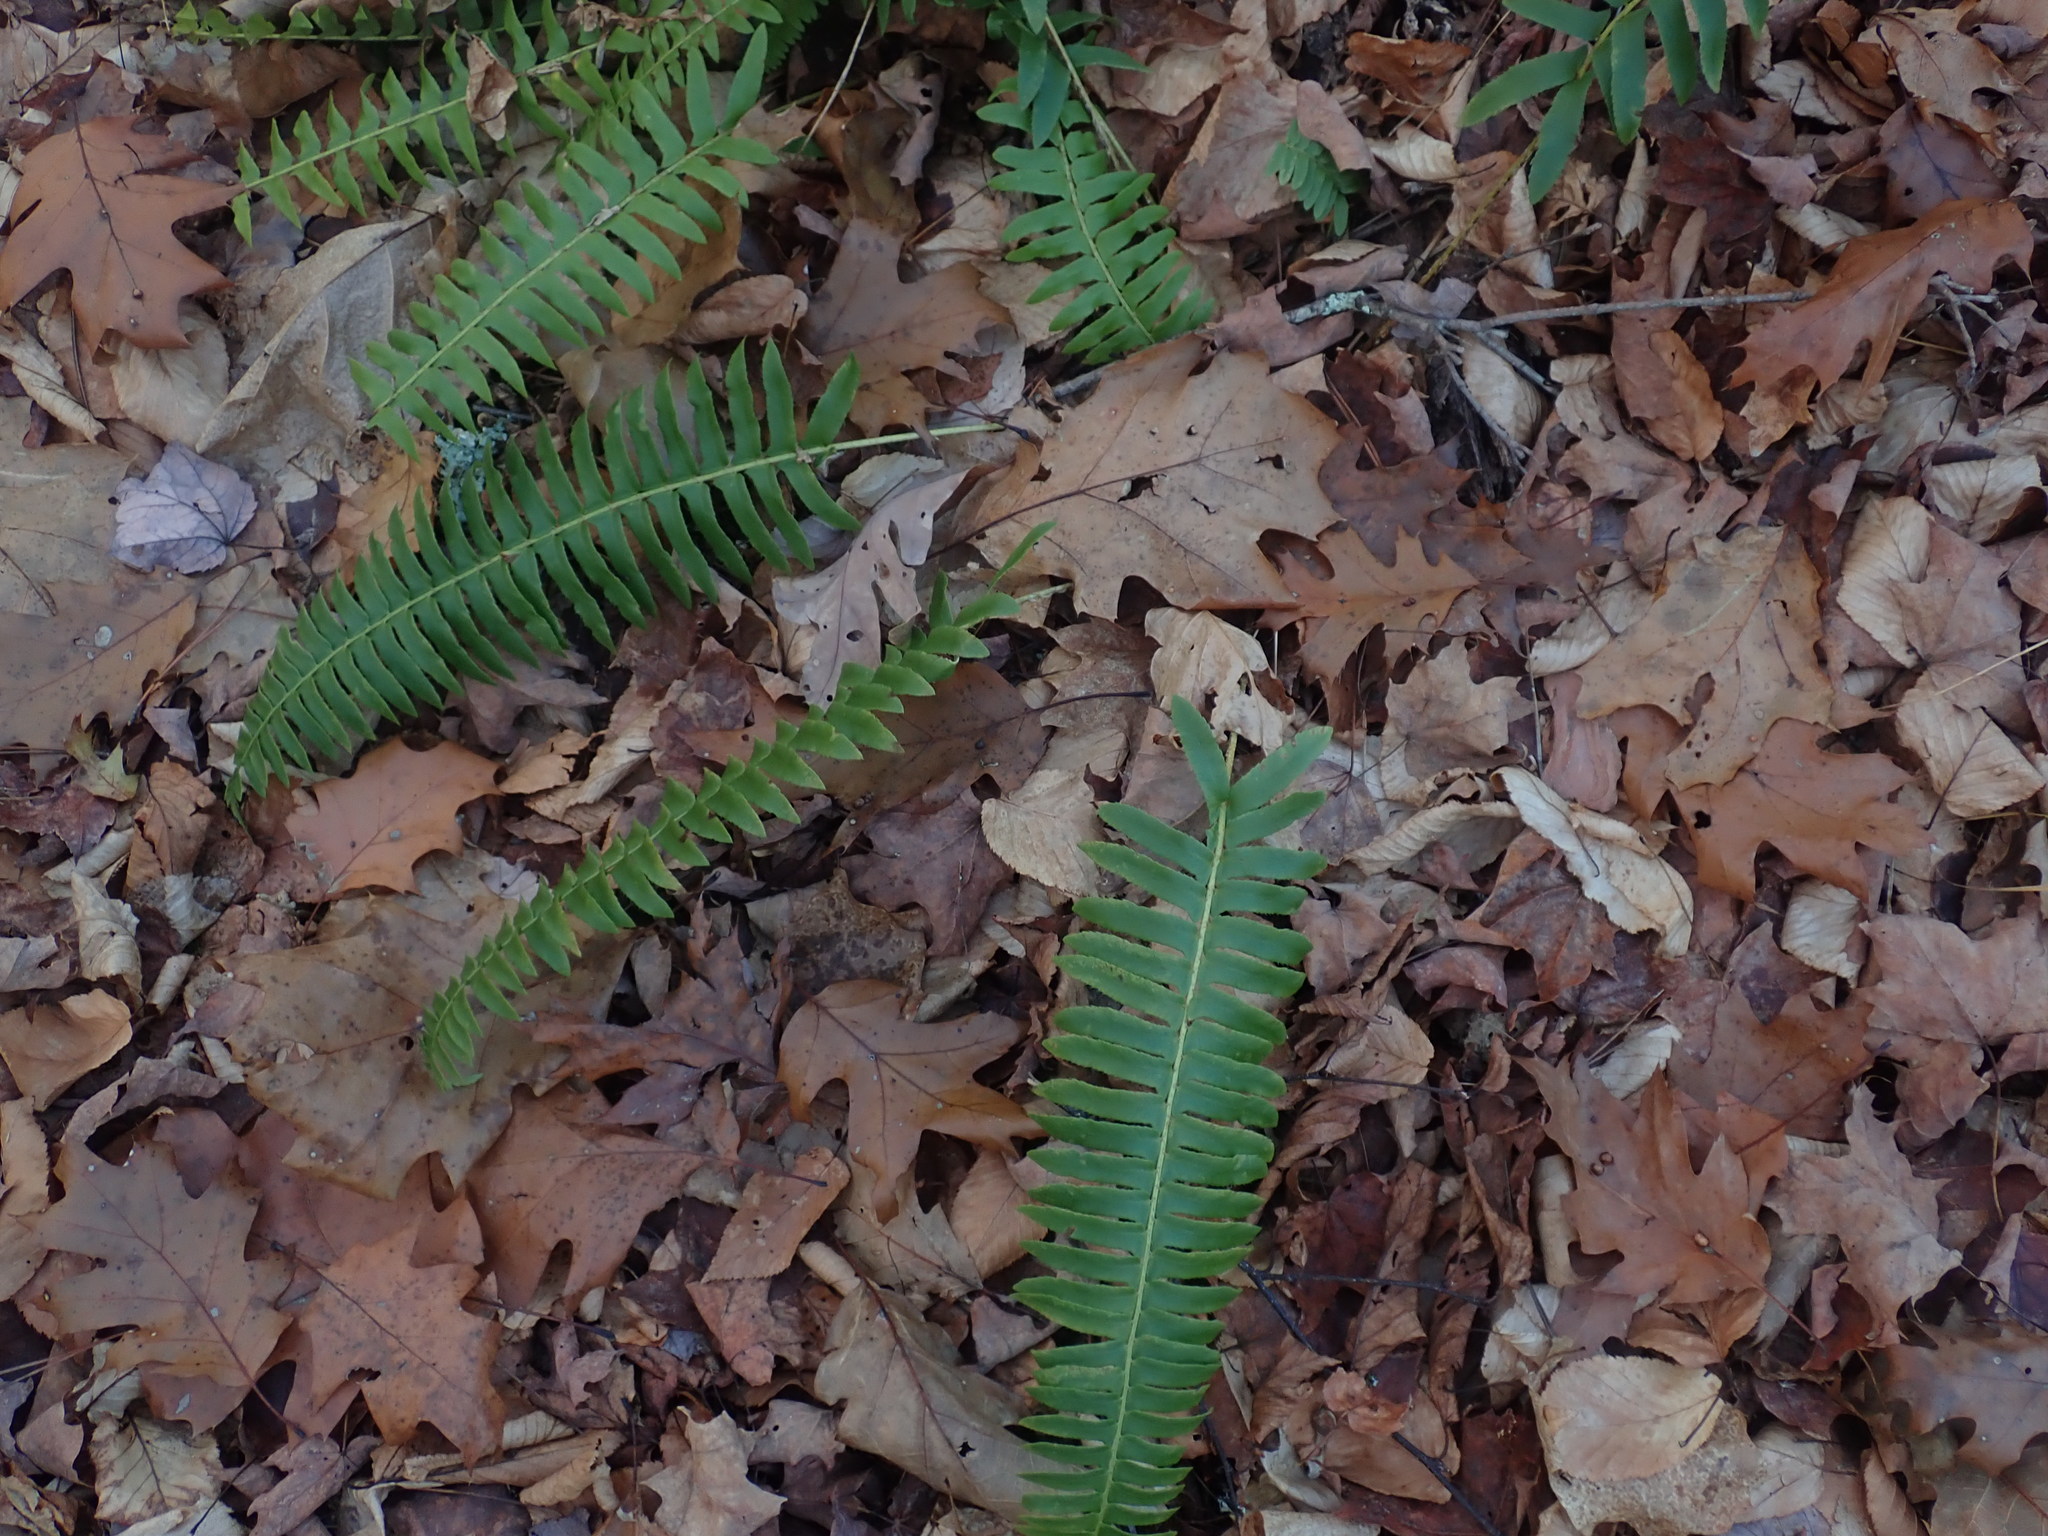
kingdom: Plantae
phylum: Tracheophyta
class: Polypodiopsida
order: Polypodiales
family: Dryopteridaceae
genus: Polystichum
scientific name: Polystichum acrostichoides
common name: Christmas fern
